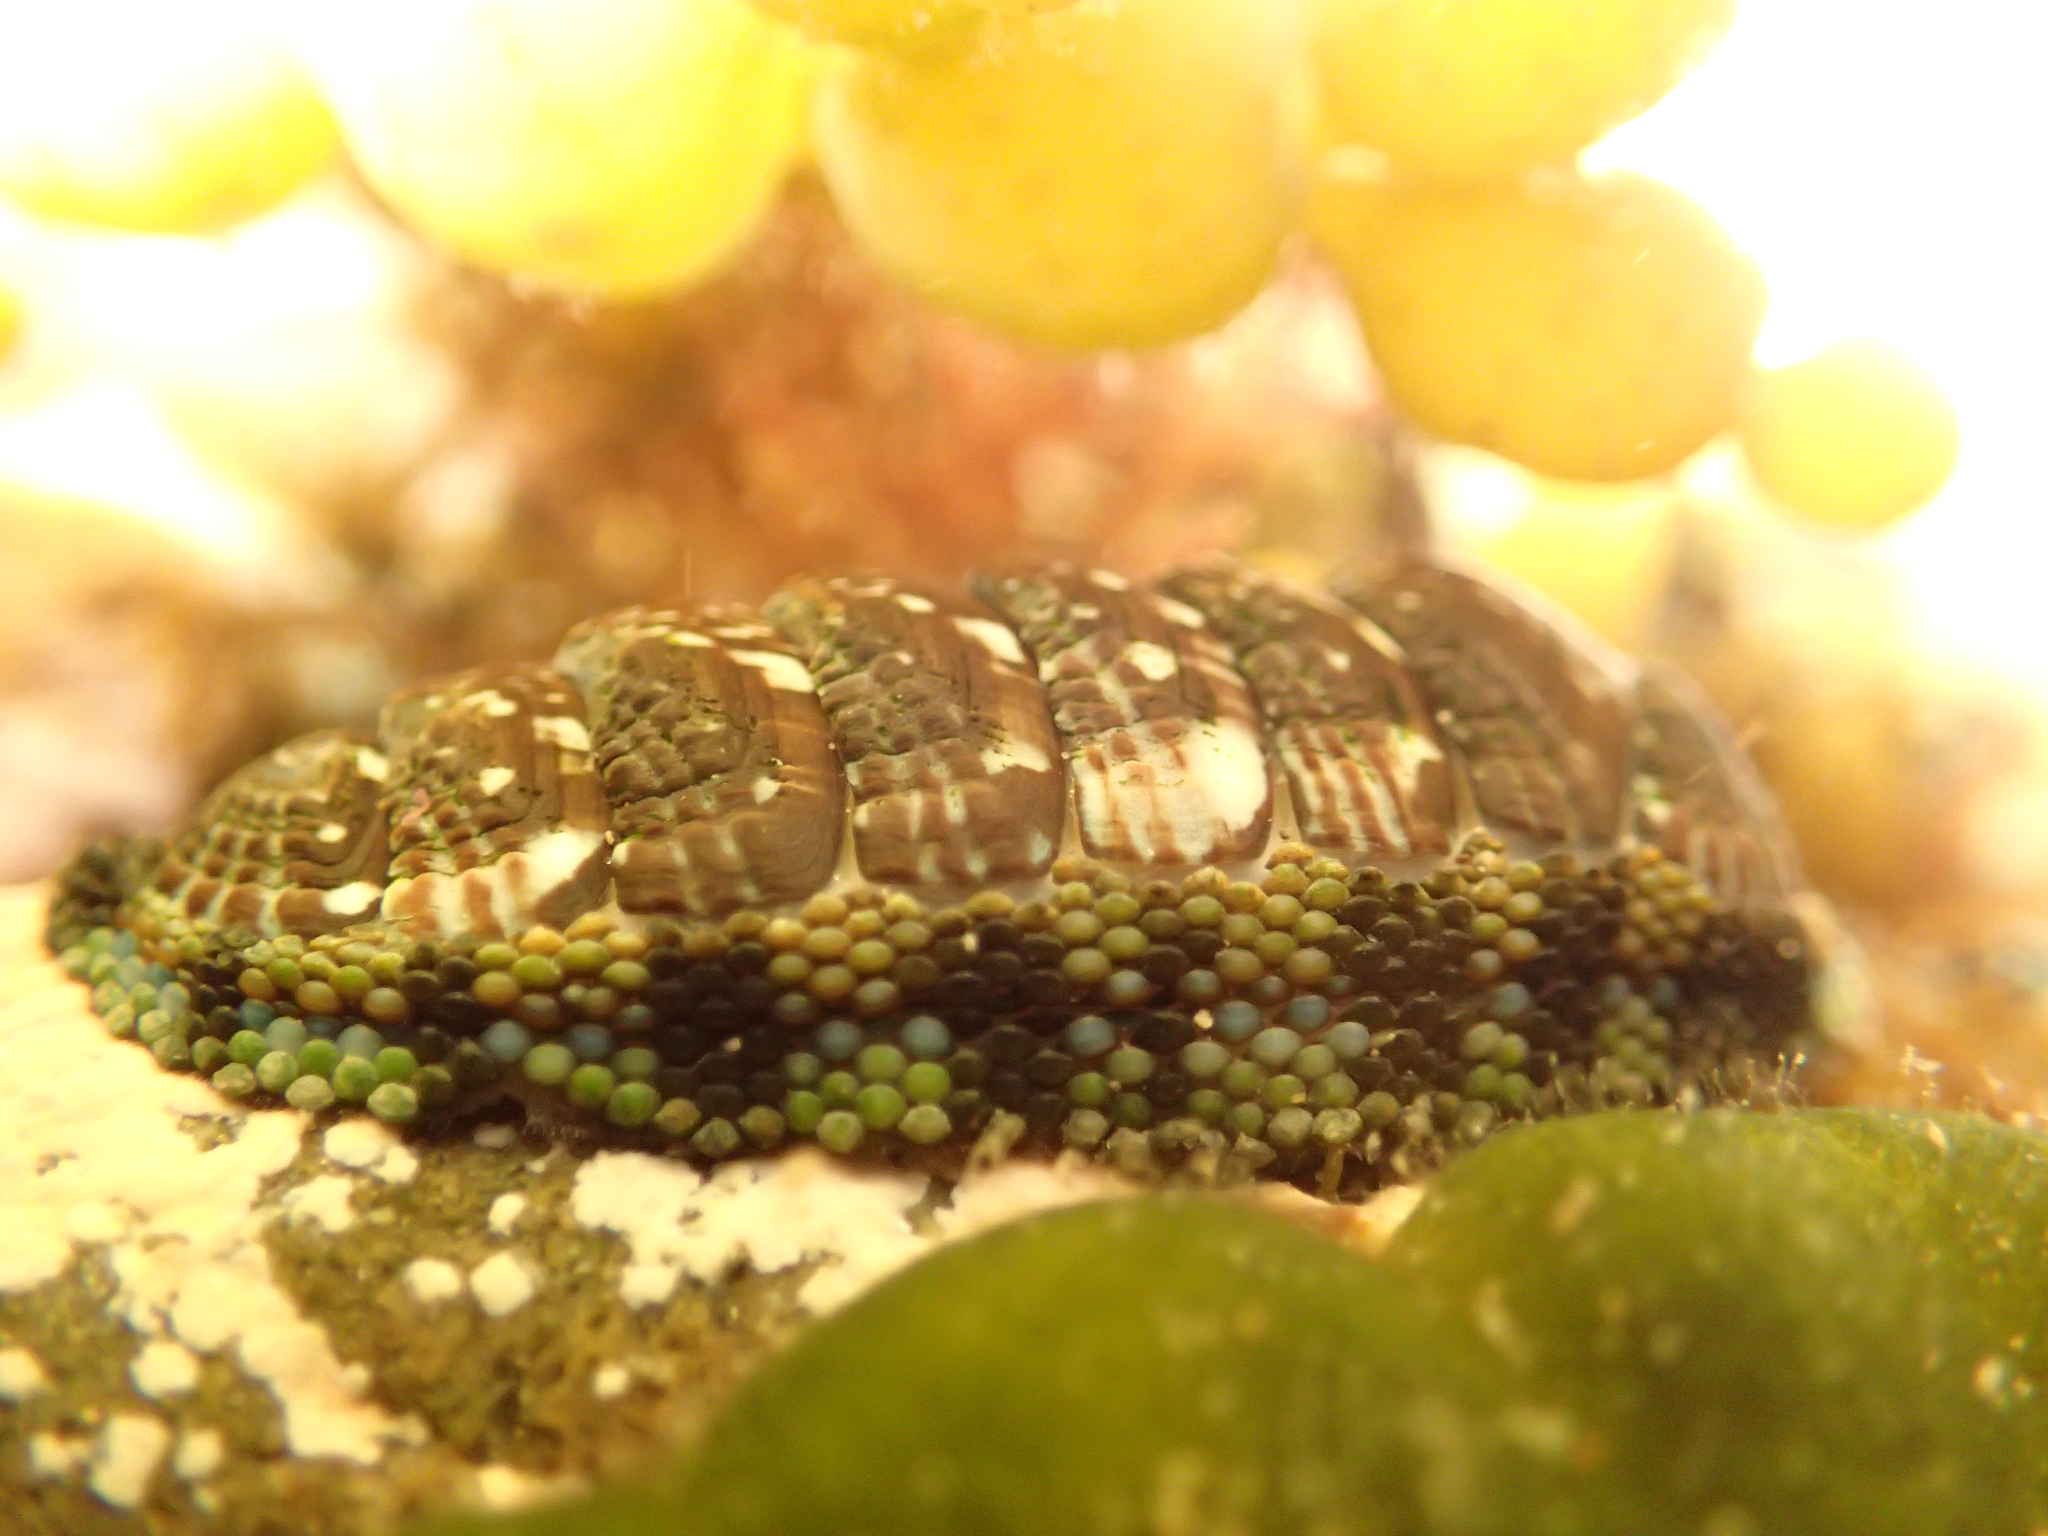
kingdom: Animalia
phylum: Mollusca
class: Polyplacophora
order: Chitonida
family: Chitonidae
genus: Sypharochiton
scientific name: Sypharochiton sinclairi
